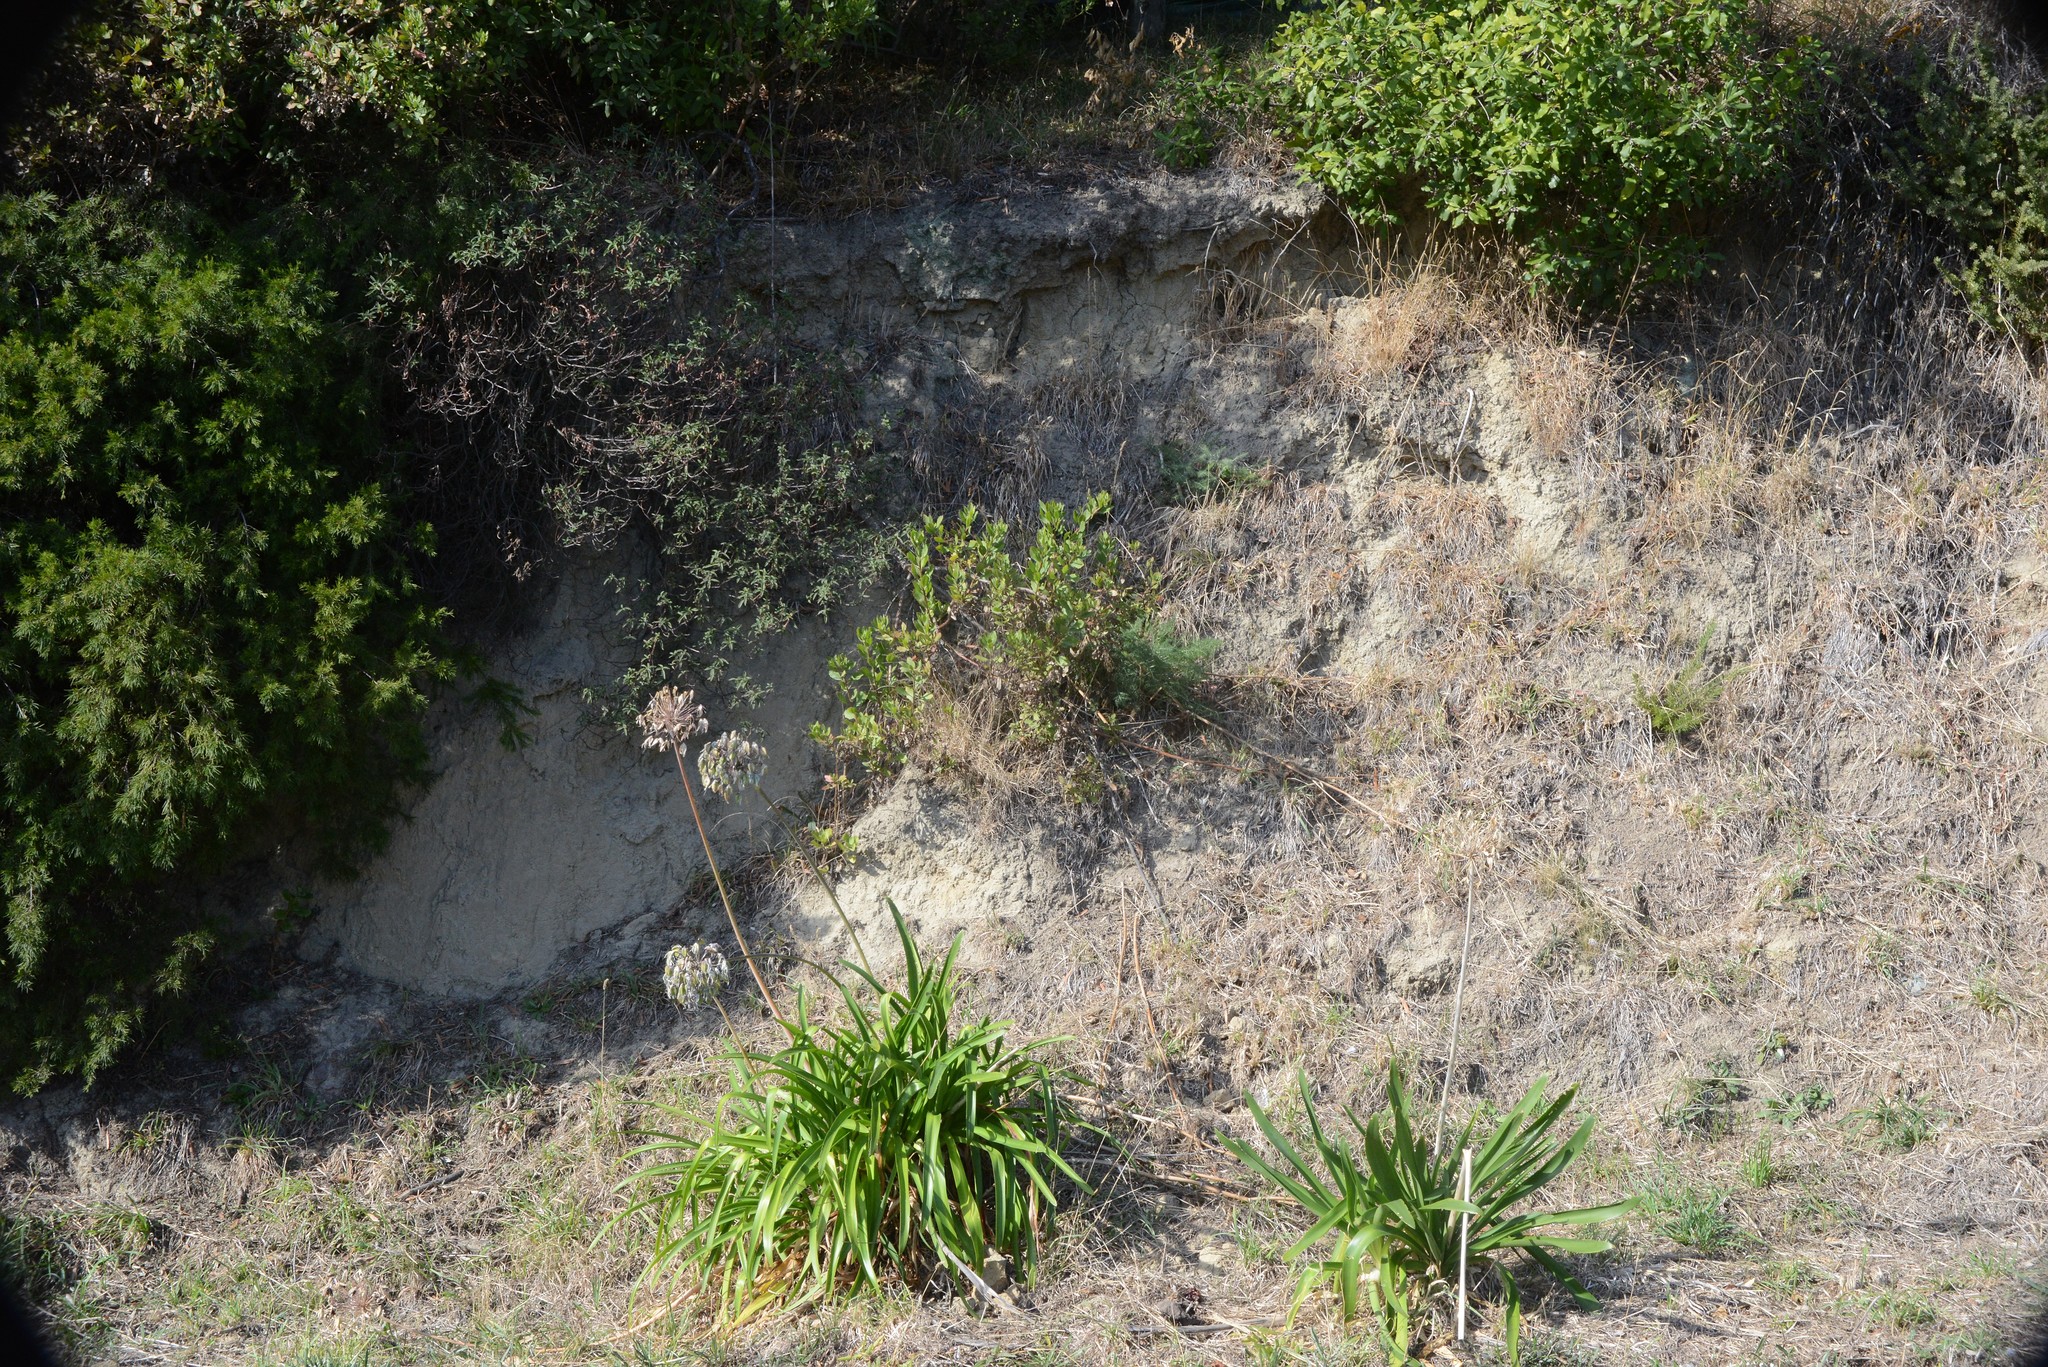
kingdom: Plantae
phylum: Tracheophyta
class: Liliopsida
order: Asparagales
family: Amaryllidaceae
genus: Agapanthus
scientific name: Agapanthus praecox
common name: African-lily
